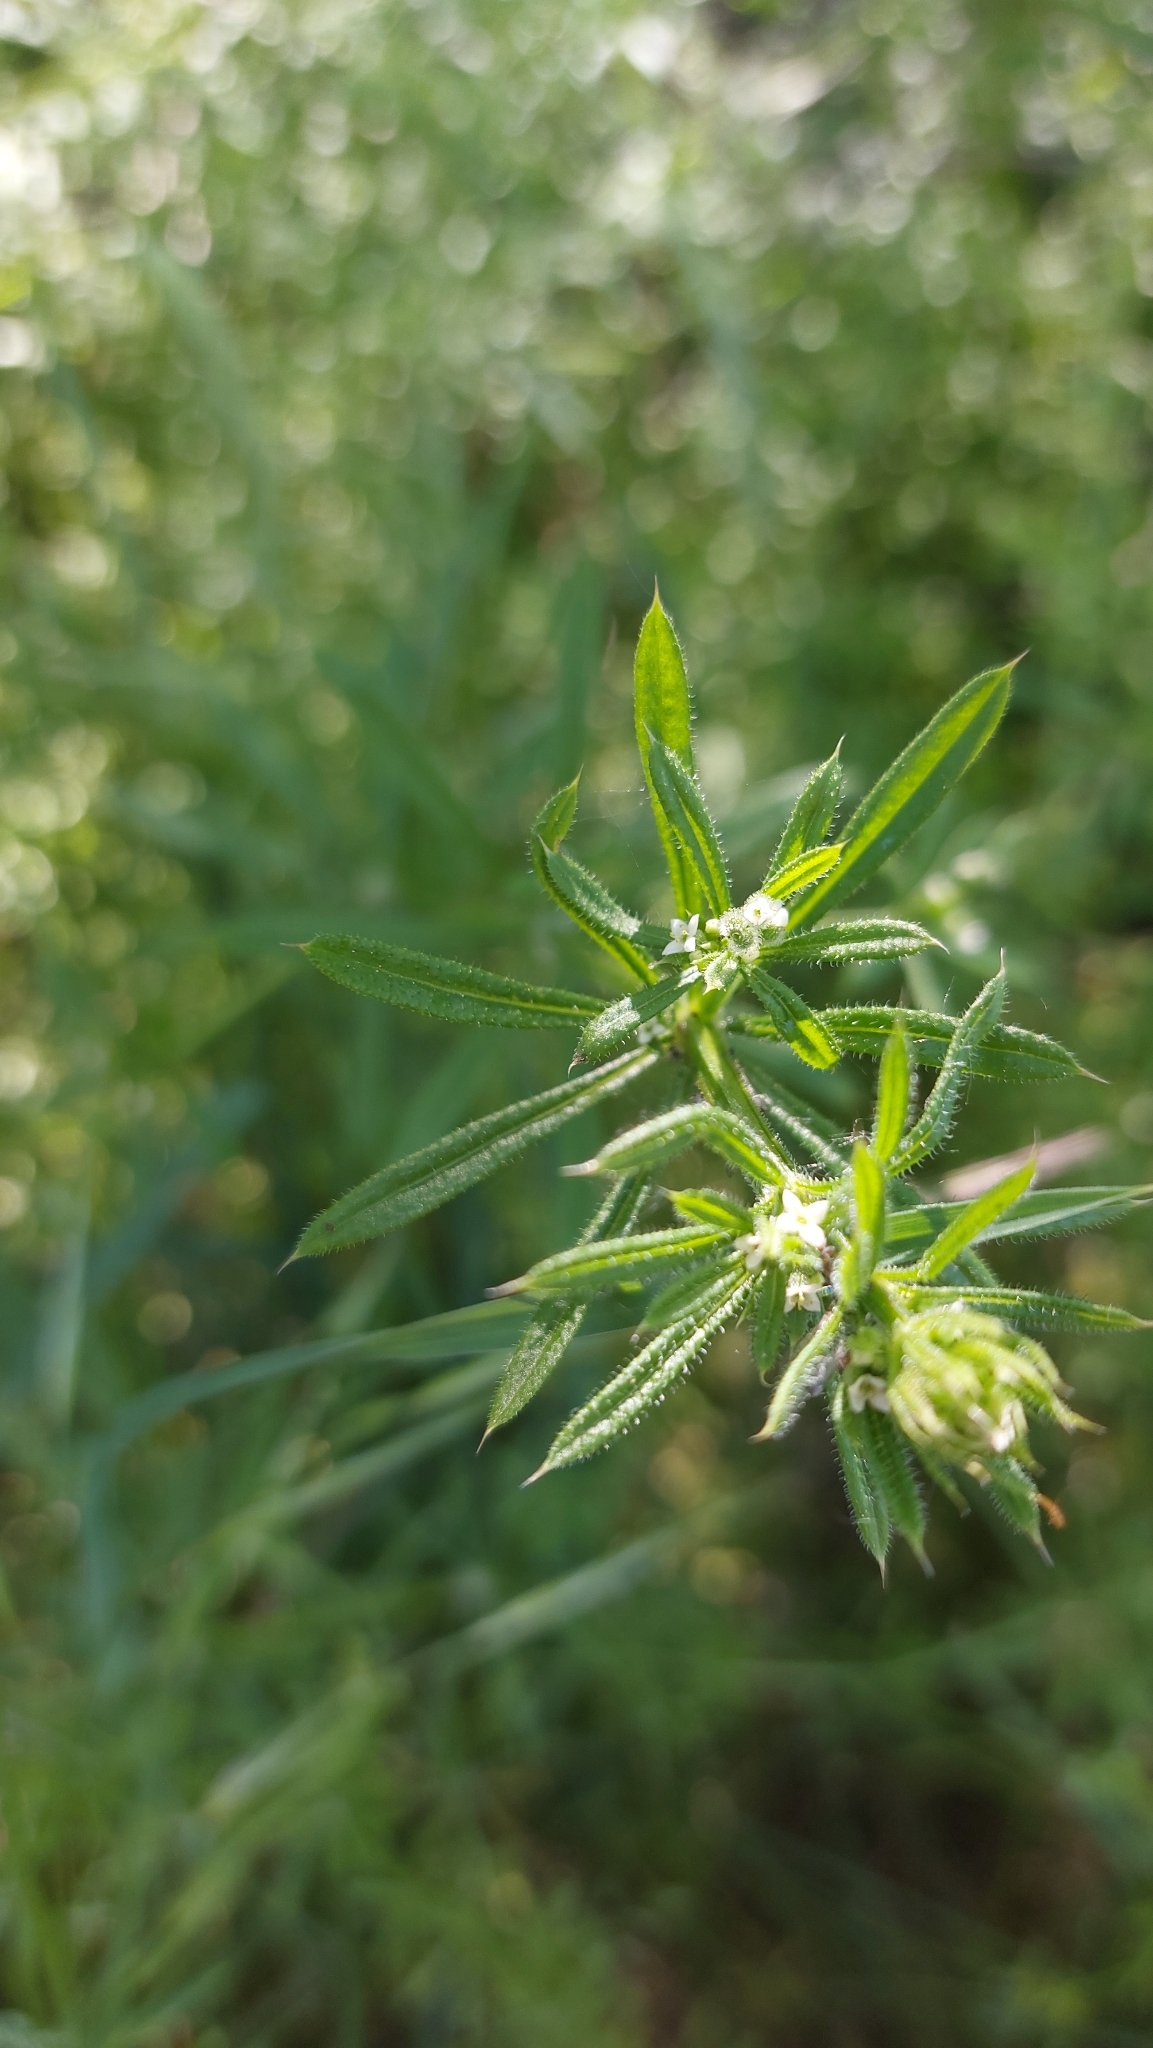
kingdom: Plantae
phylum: Tracheophyta
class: Magnoliopsida
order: Gentianales
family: Rubiaceae
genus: Galium
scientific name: Galium aparine
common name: Cleavers
